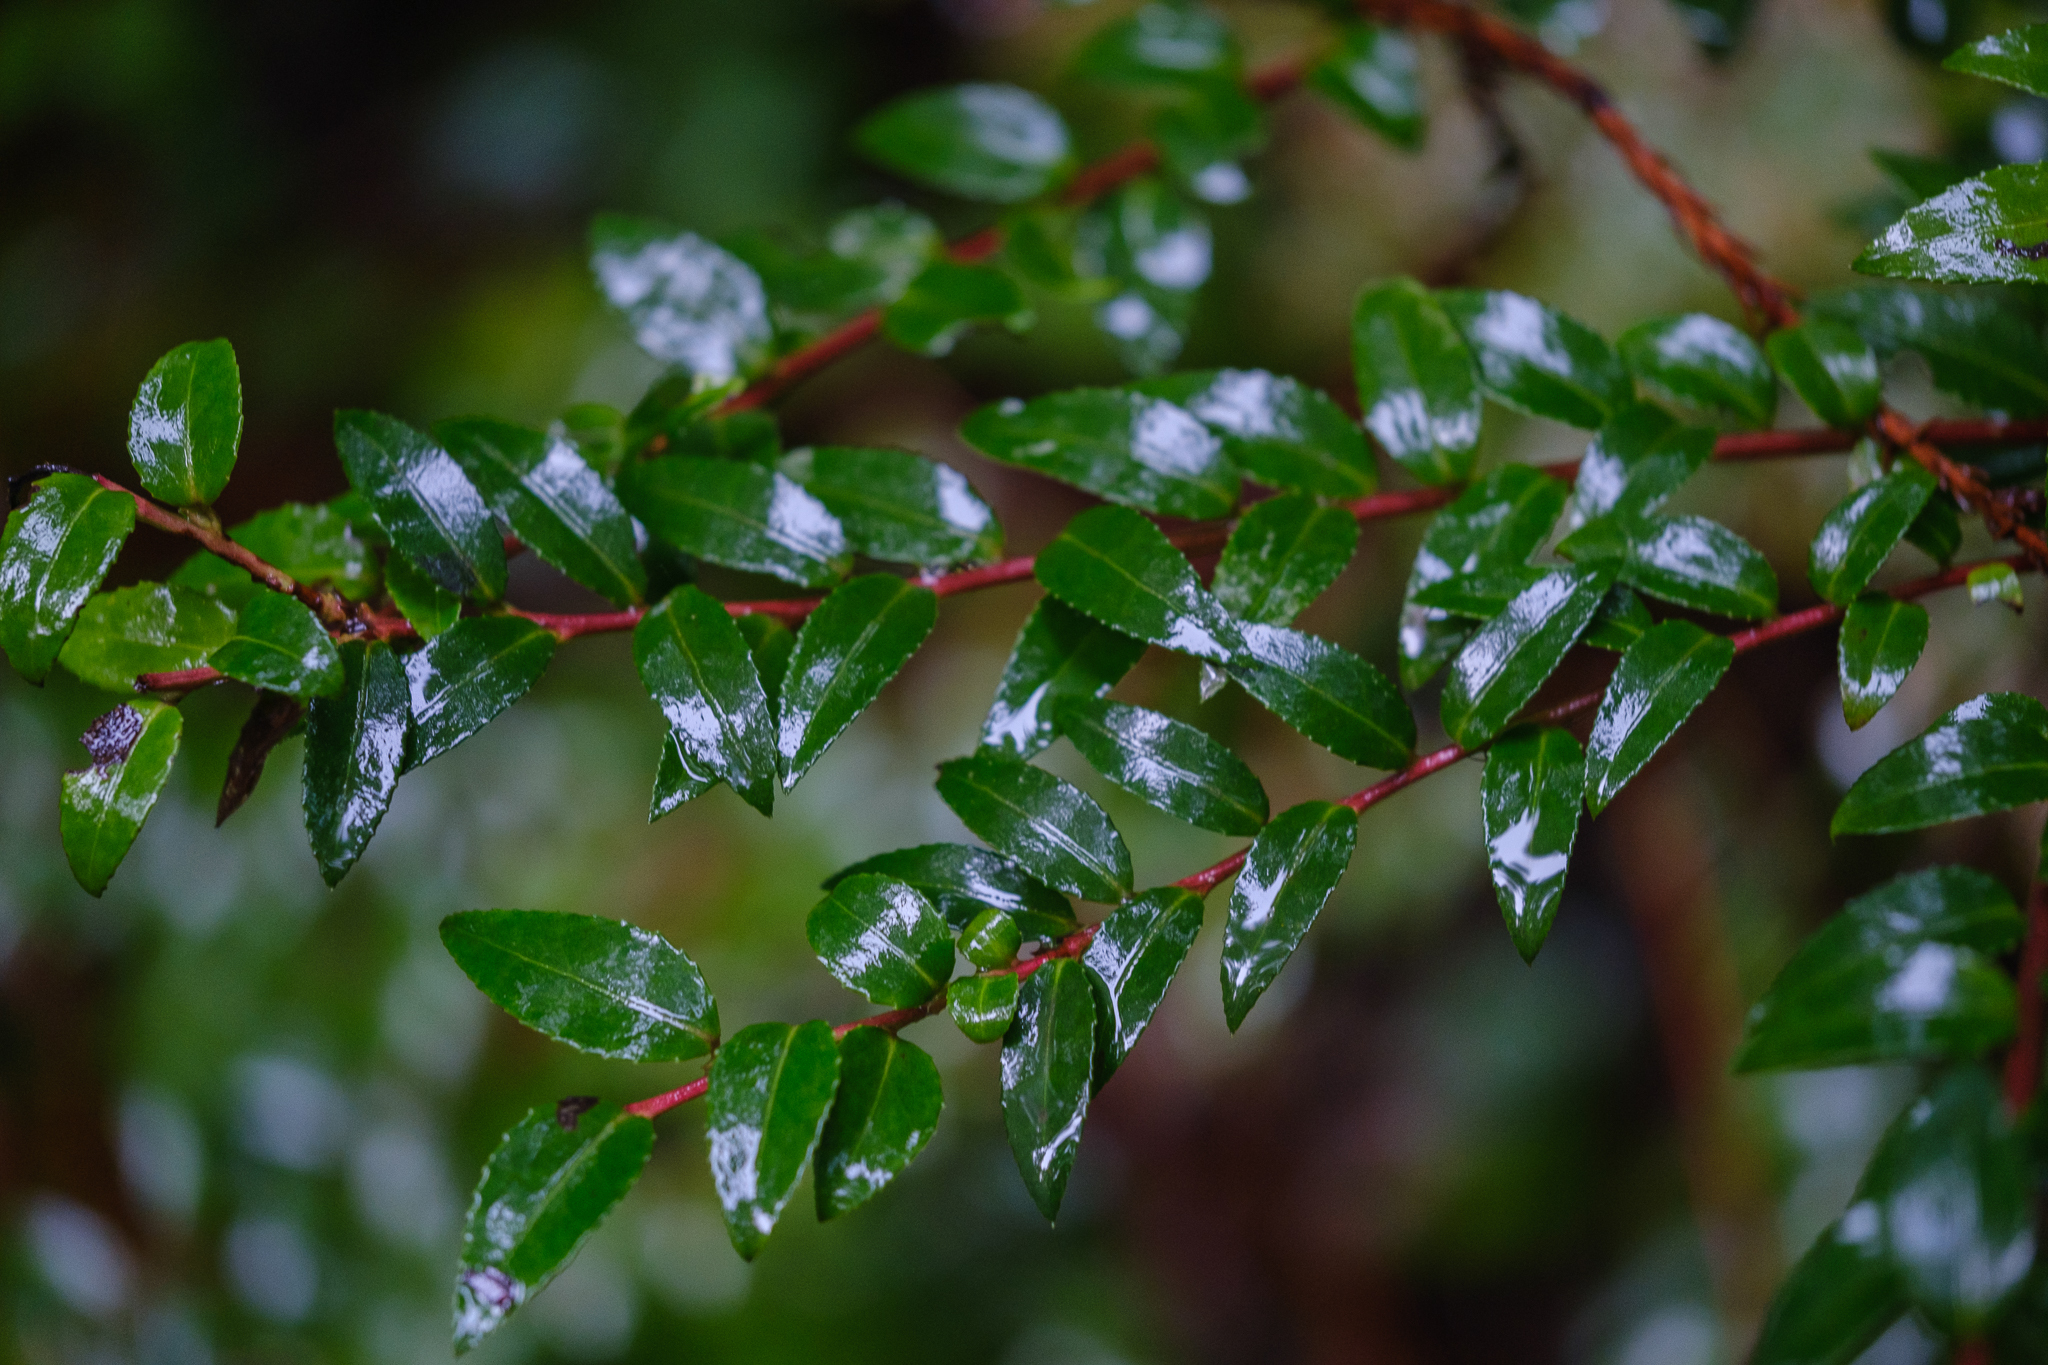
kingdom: Plantae
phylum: Tracheophyta
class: Magnoliopsida
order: Ericales
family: Ericaceae
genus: Vaccinium
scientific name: Vaccinium ovatum
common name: California-huckleberry
